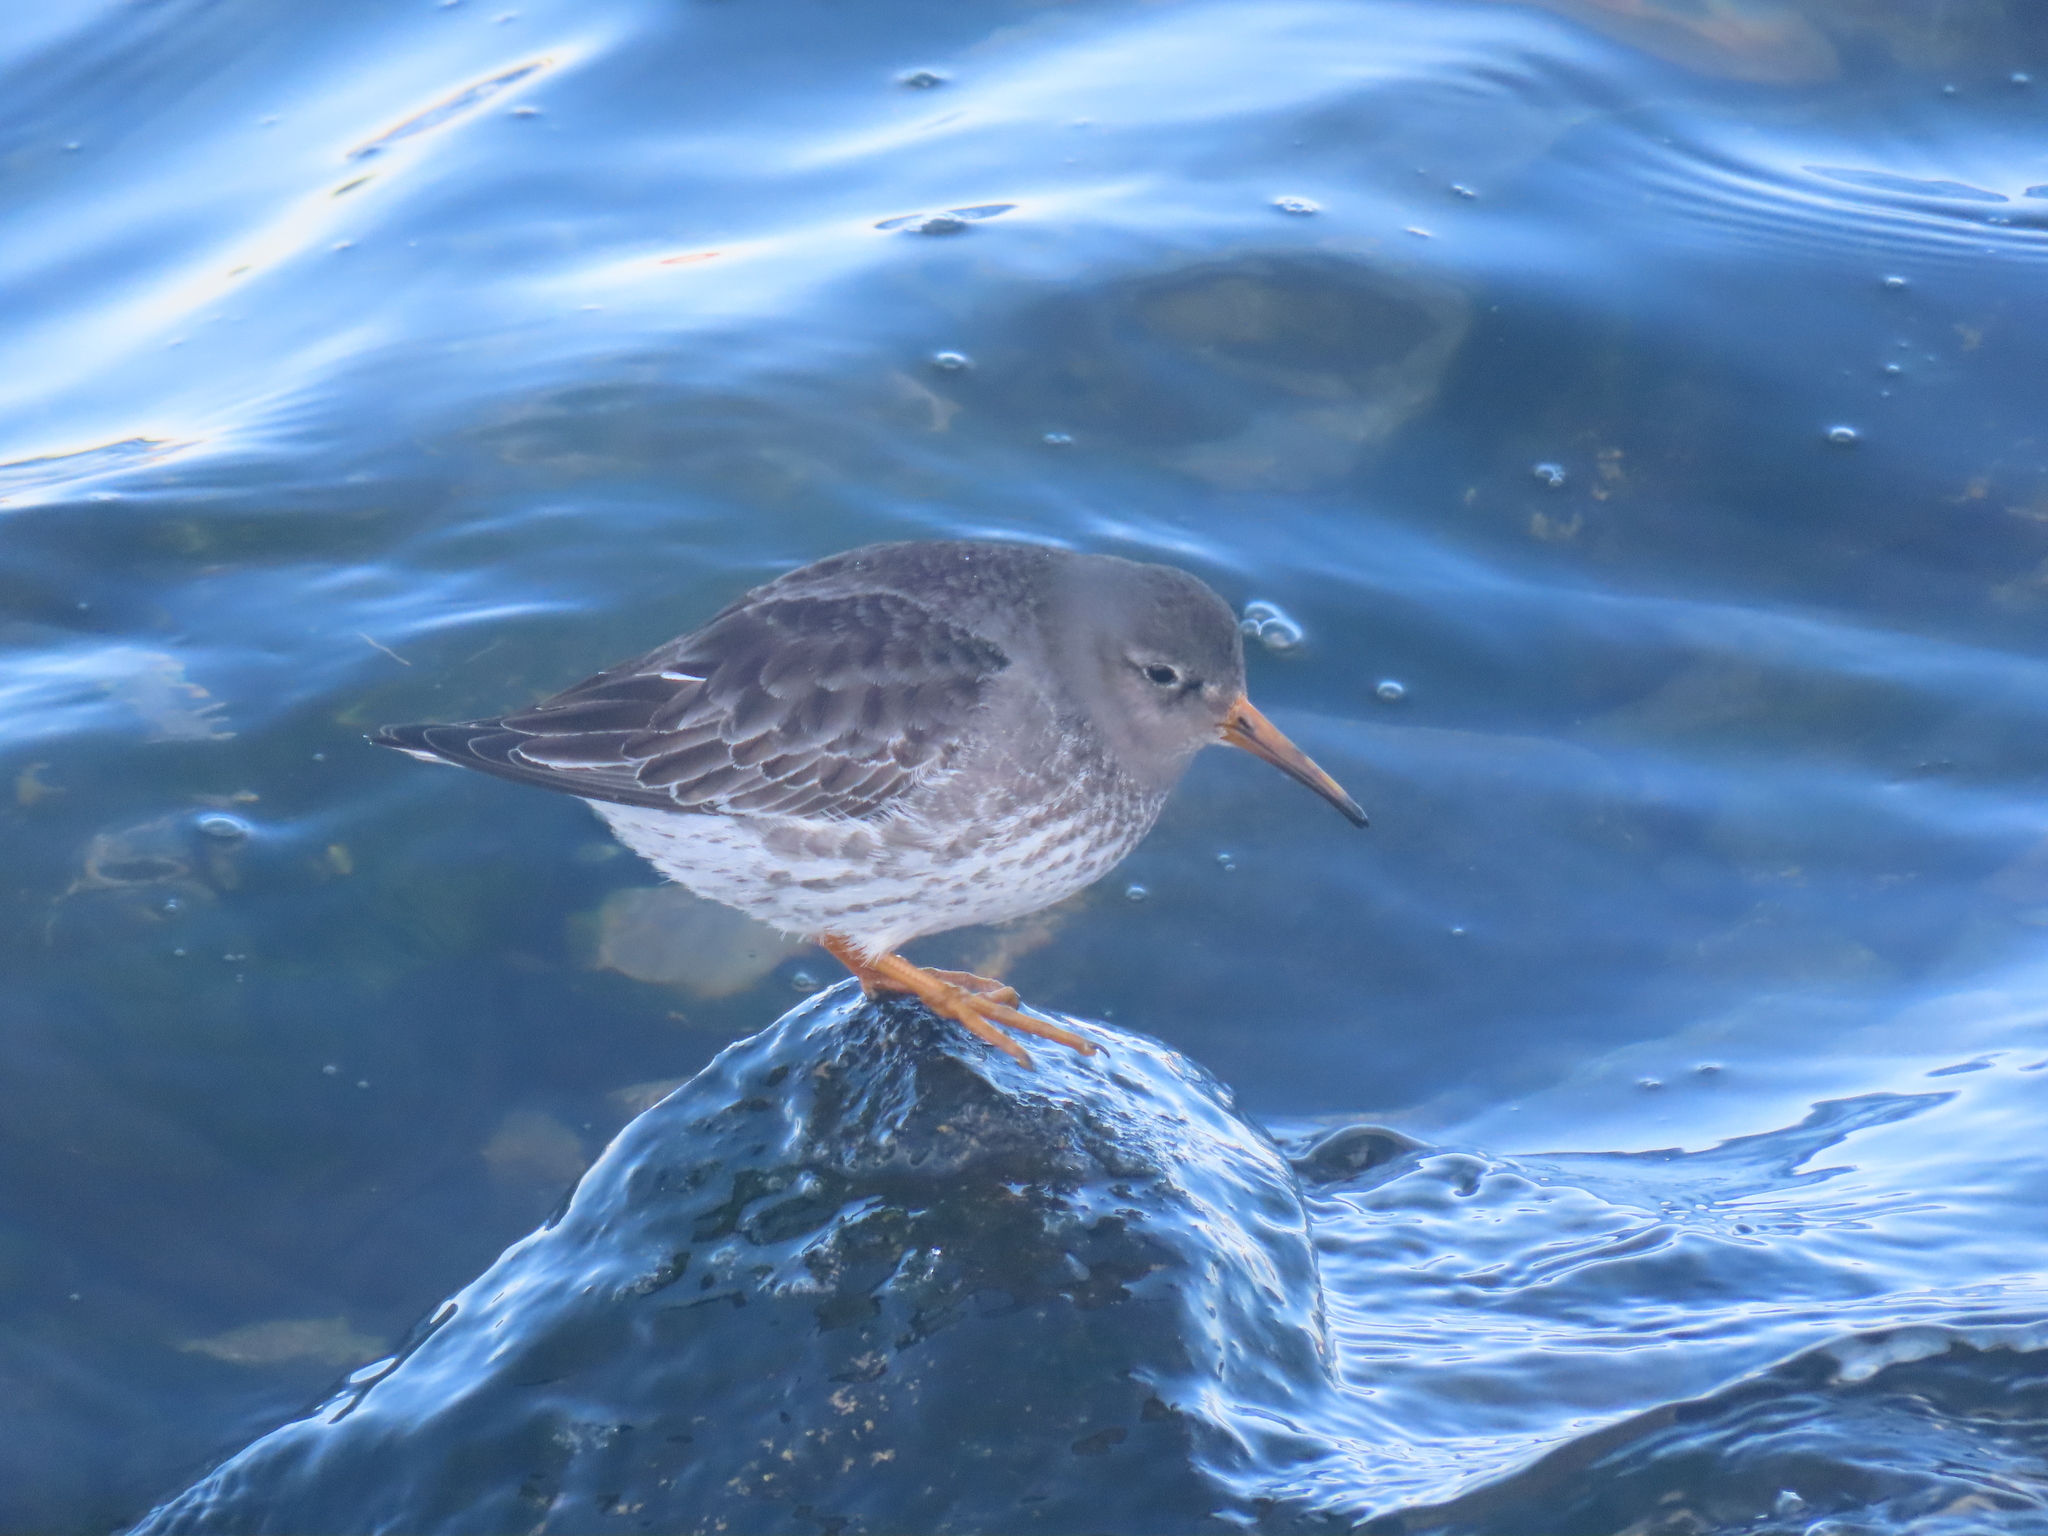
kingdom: Animalia
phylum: Chordata
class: Aves
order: Charadriiformes
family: Scolopacidae
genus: Calidris
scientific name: Calidris maritima
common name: Purple sandpiper
